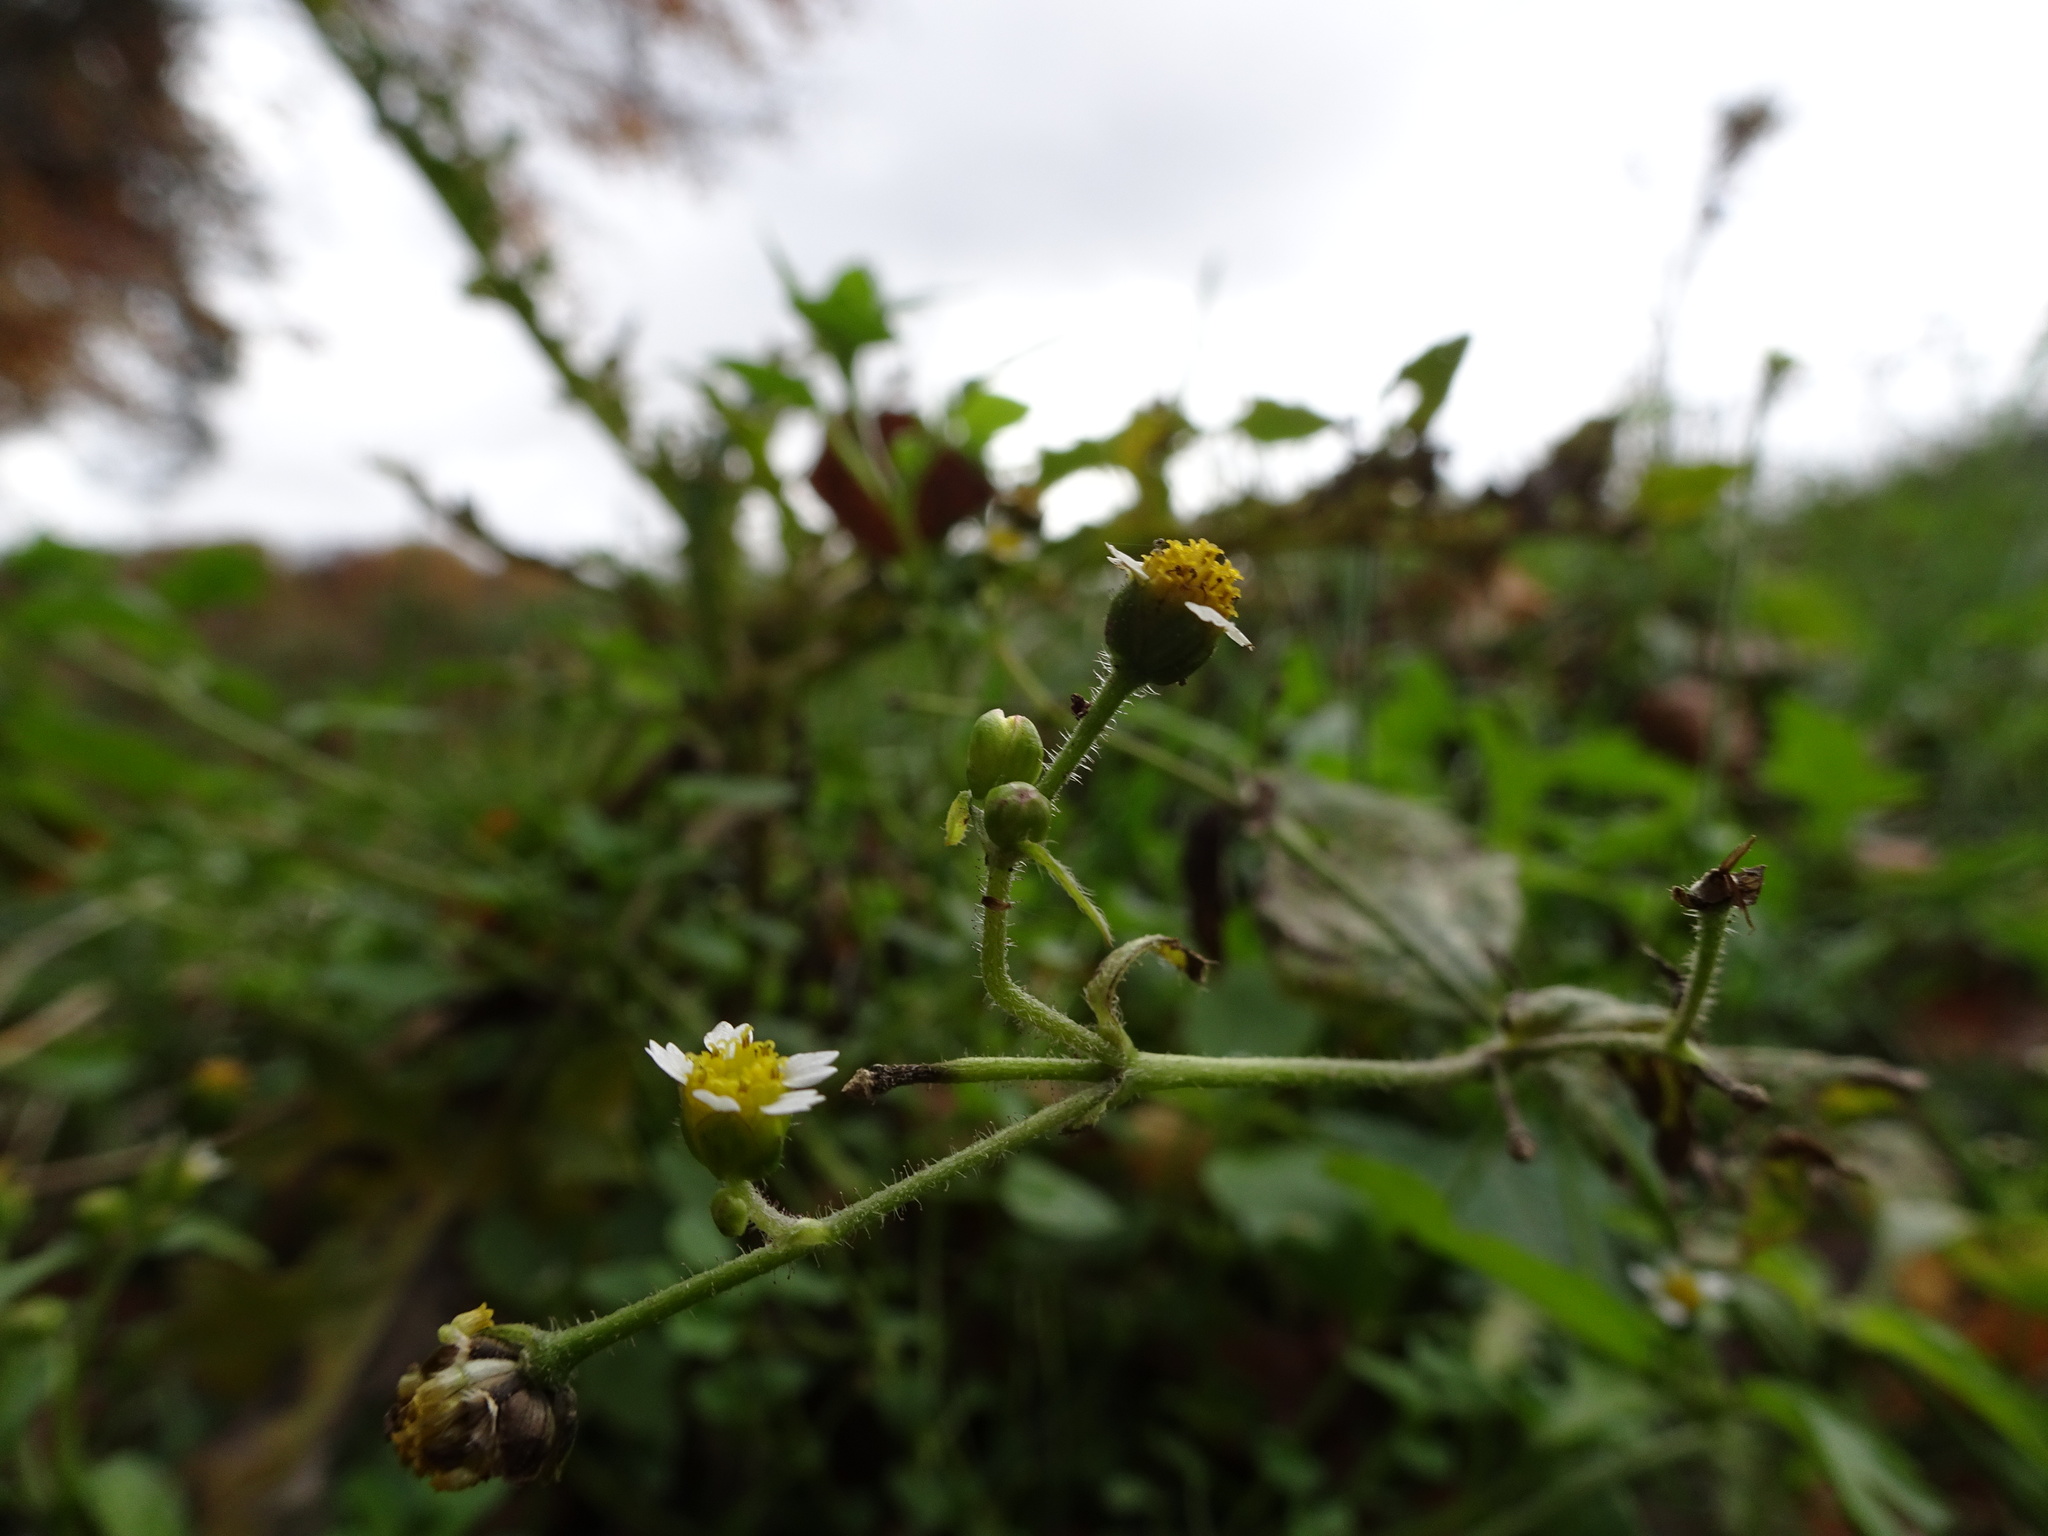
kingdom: Plantae
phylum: Tracheophyta
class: Magnoliopsida
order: Asterales
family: Asteraceae
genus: Galinsoga
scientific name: Galinsoga quadriradiata
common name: Shaggy soldier
